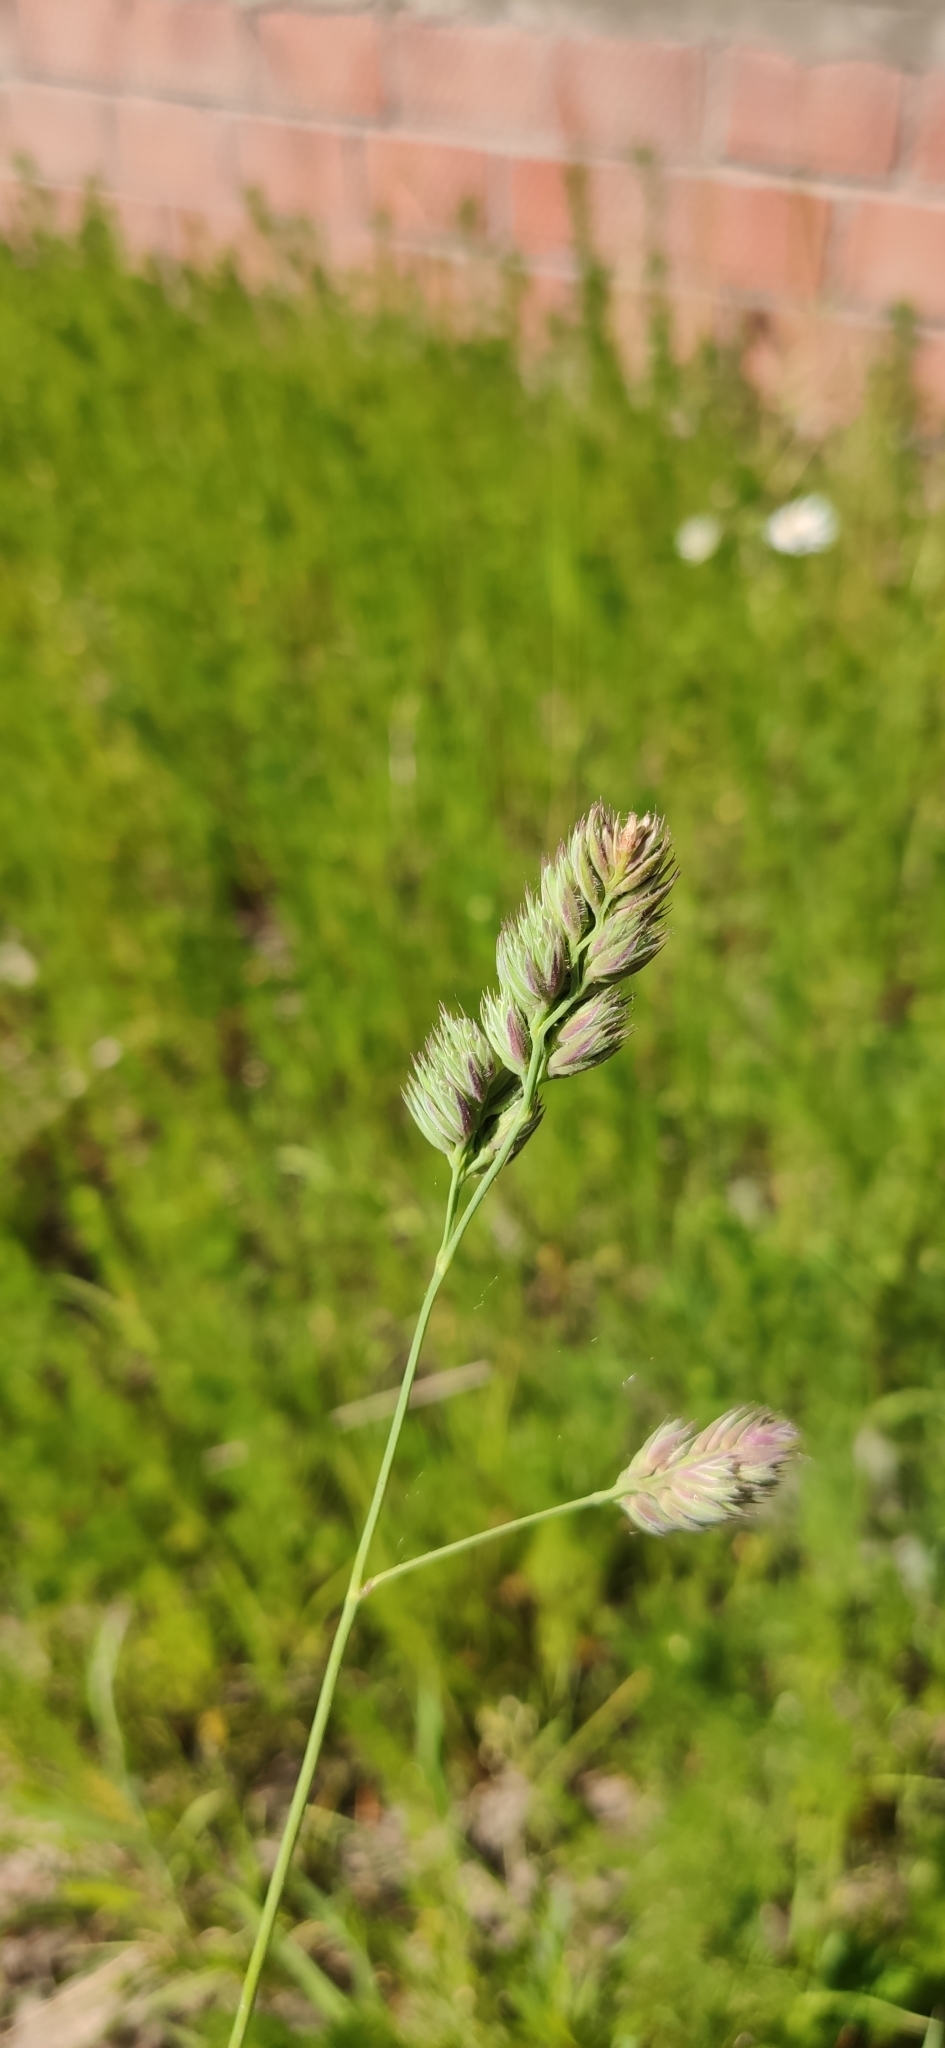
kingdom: Plantae
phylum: Tracheophyta
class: Liliopsida
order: Poales
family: Poaceae
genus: Dactylis
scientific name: Dactylis glomerata
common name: Orchardgrass
